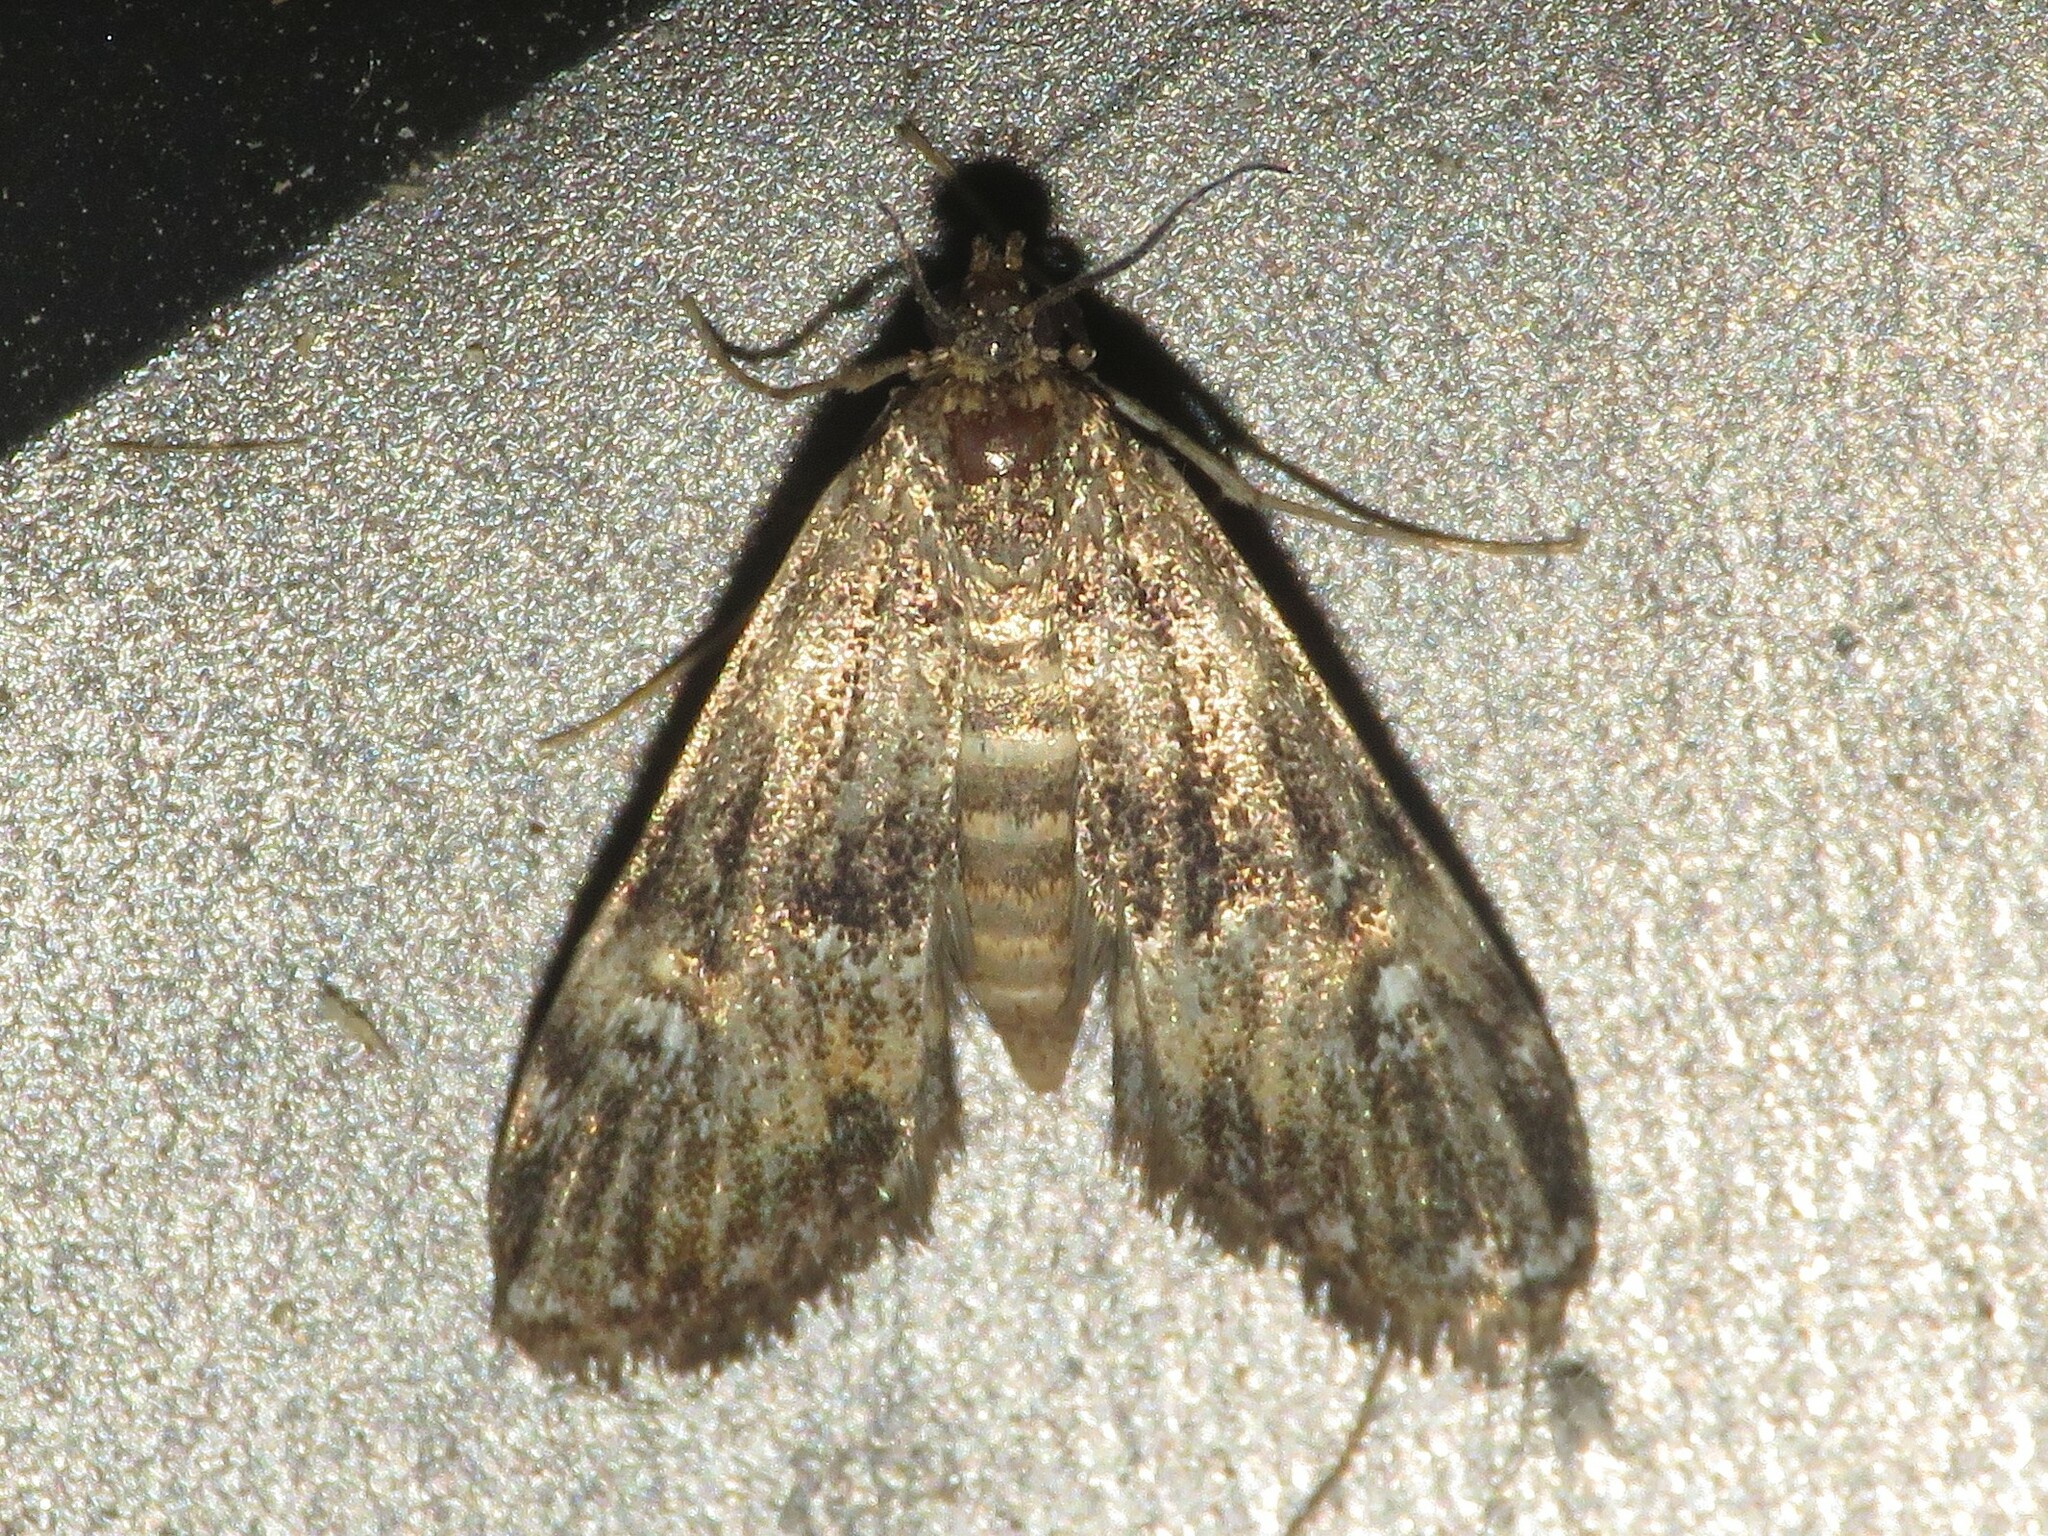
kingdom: Animalia
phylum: Arthropoda
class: Insecta
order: Lepidoptera
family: Crambidae
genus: Elophila
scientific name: Elophila obliteralis
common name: Waterlily leafcutter moth
